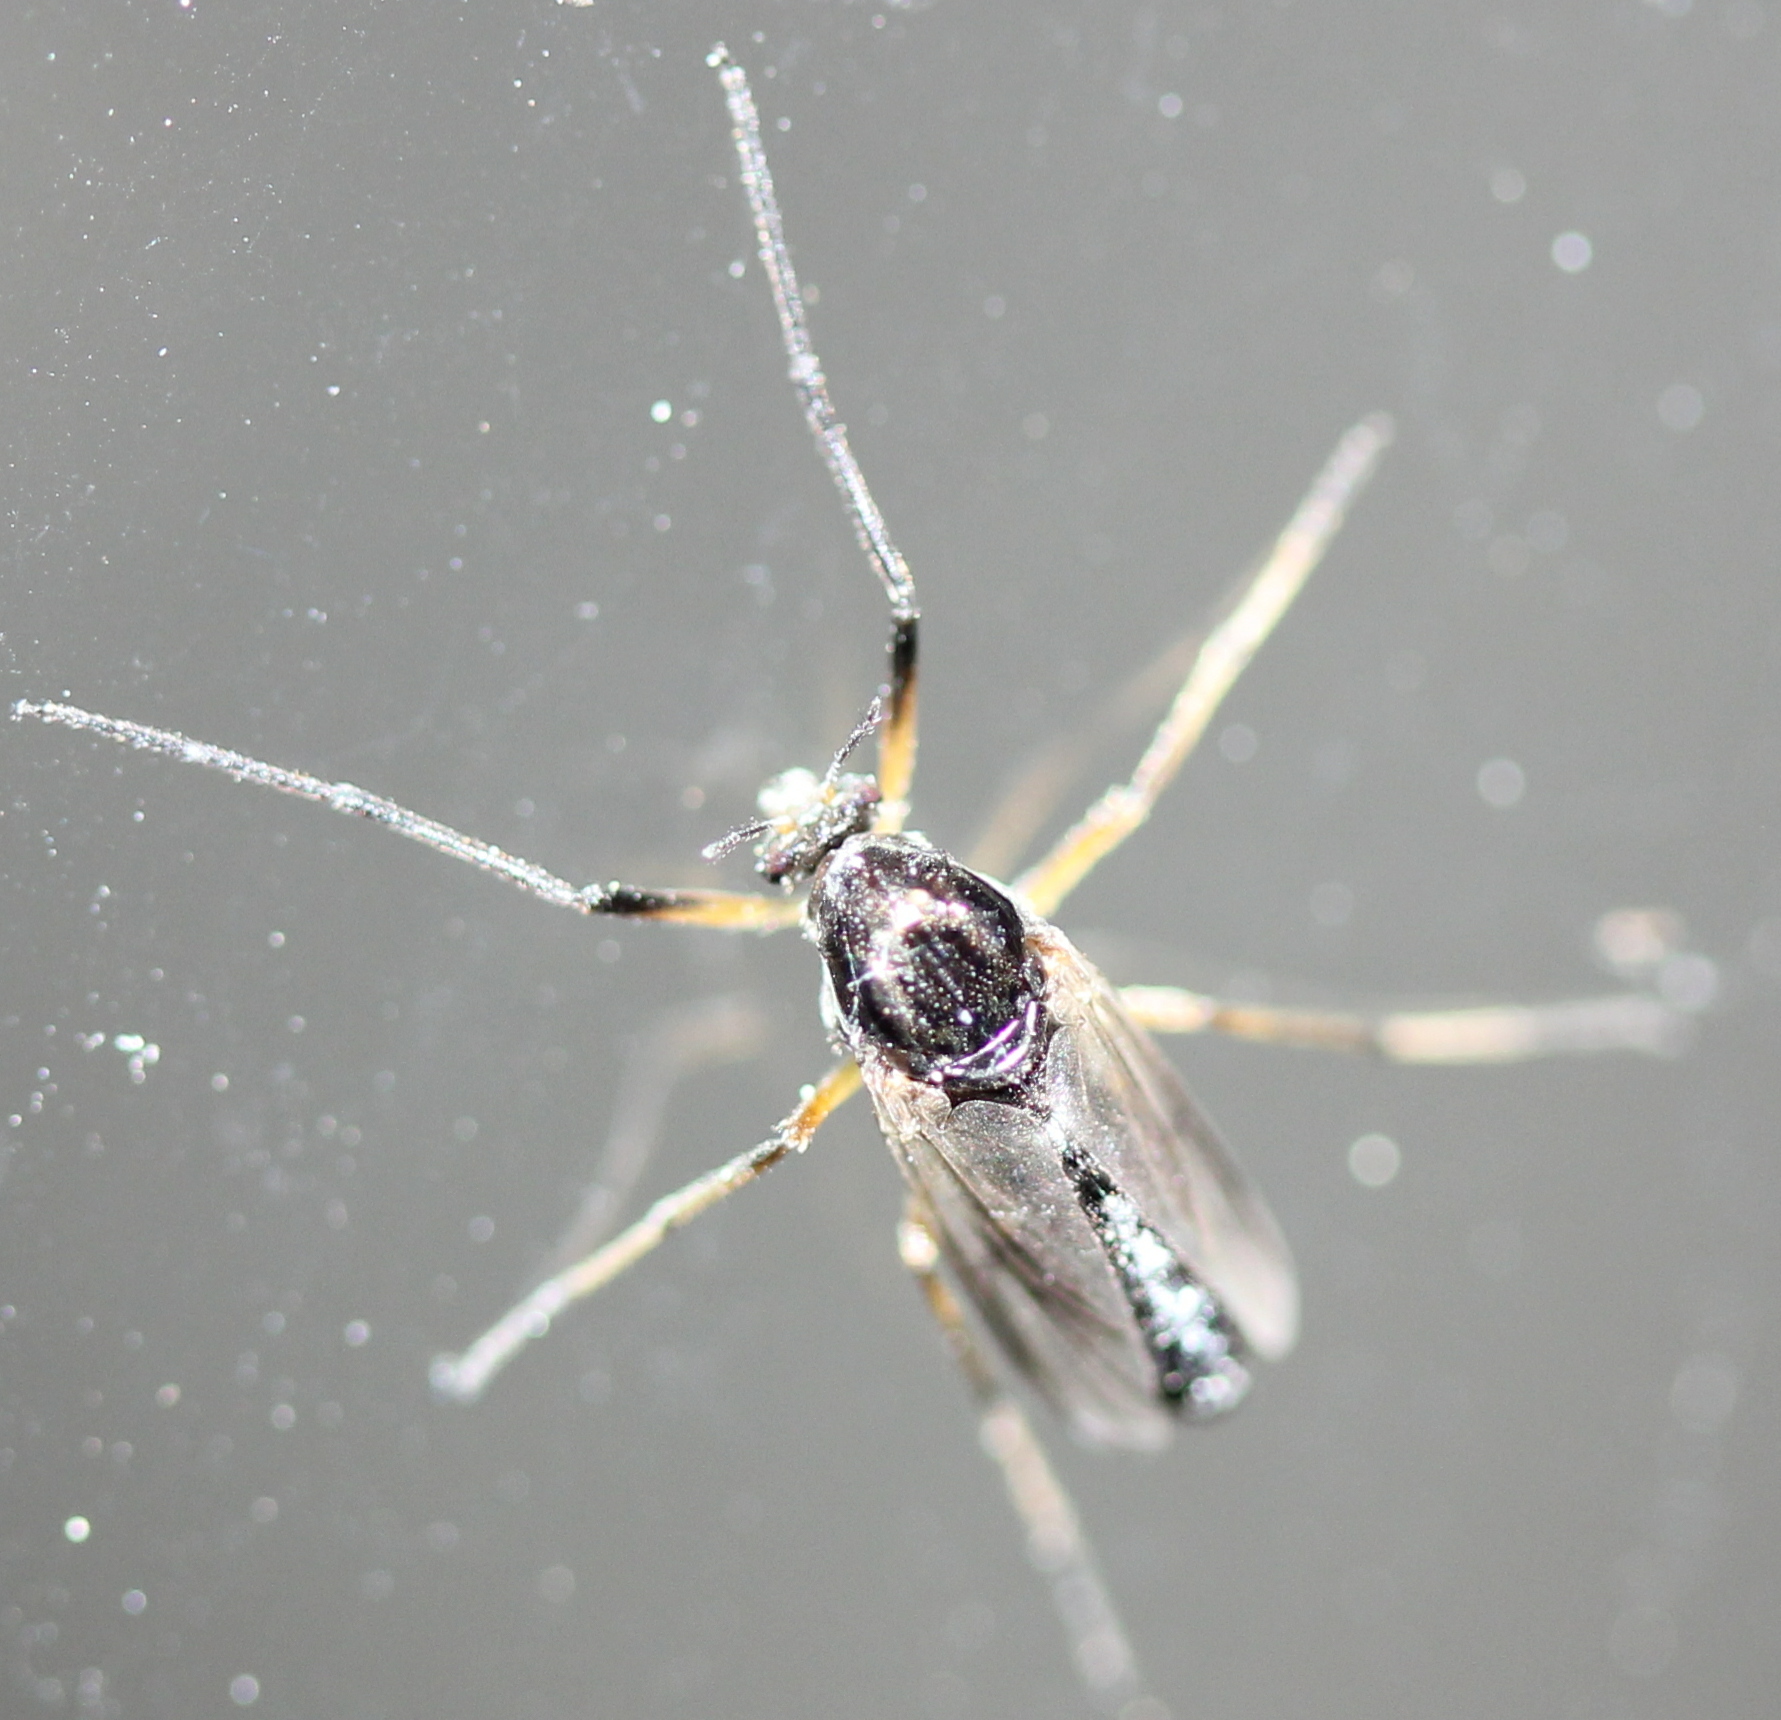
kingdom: Animalia
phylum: Arthropoda
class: Insecta
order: Diptera
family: Chironomidae
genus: Coelotanypus
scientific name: Coelotanypus scapularis
